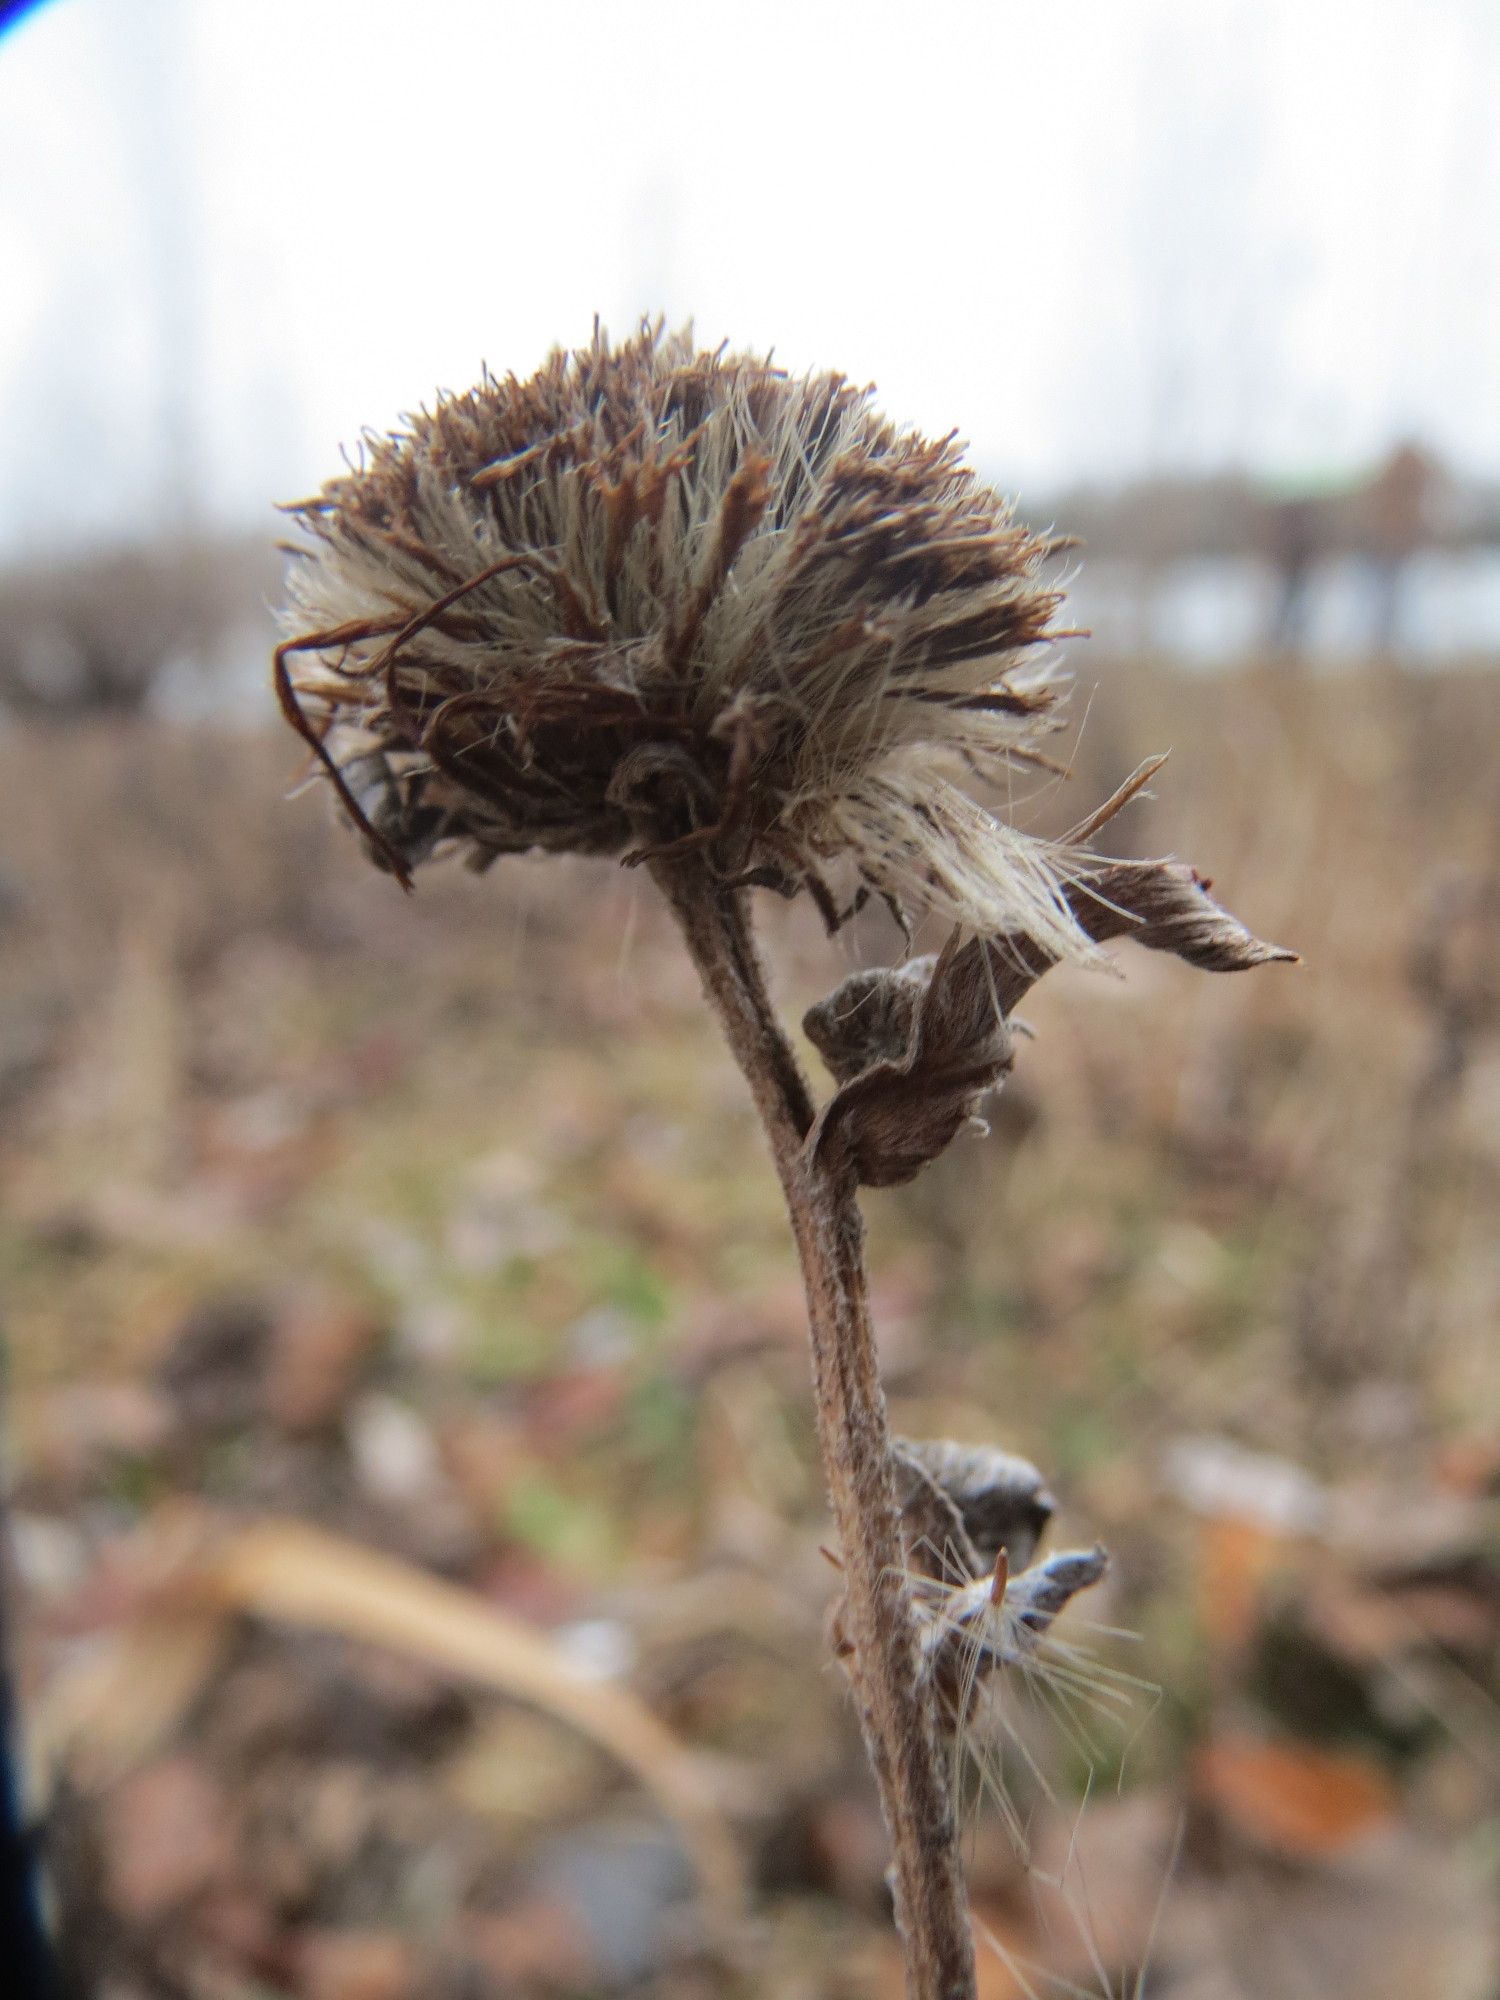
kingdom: Plantae
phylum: Tracheophyta
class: Magnoliopsida
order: Asterales
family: Asteraceae
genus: Pentanema
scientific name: Pentanema britannicum
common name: British elecampane
